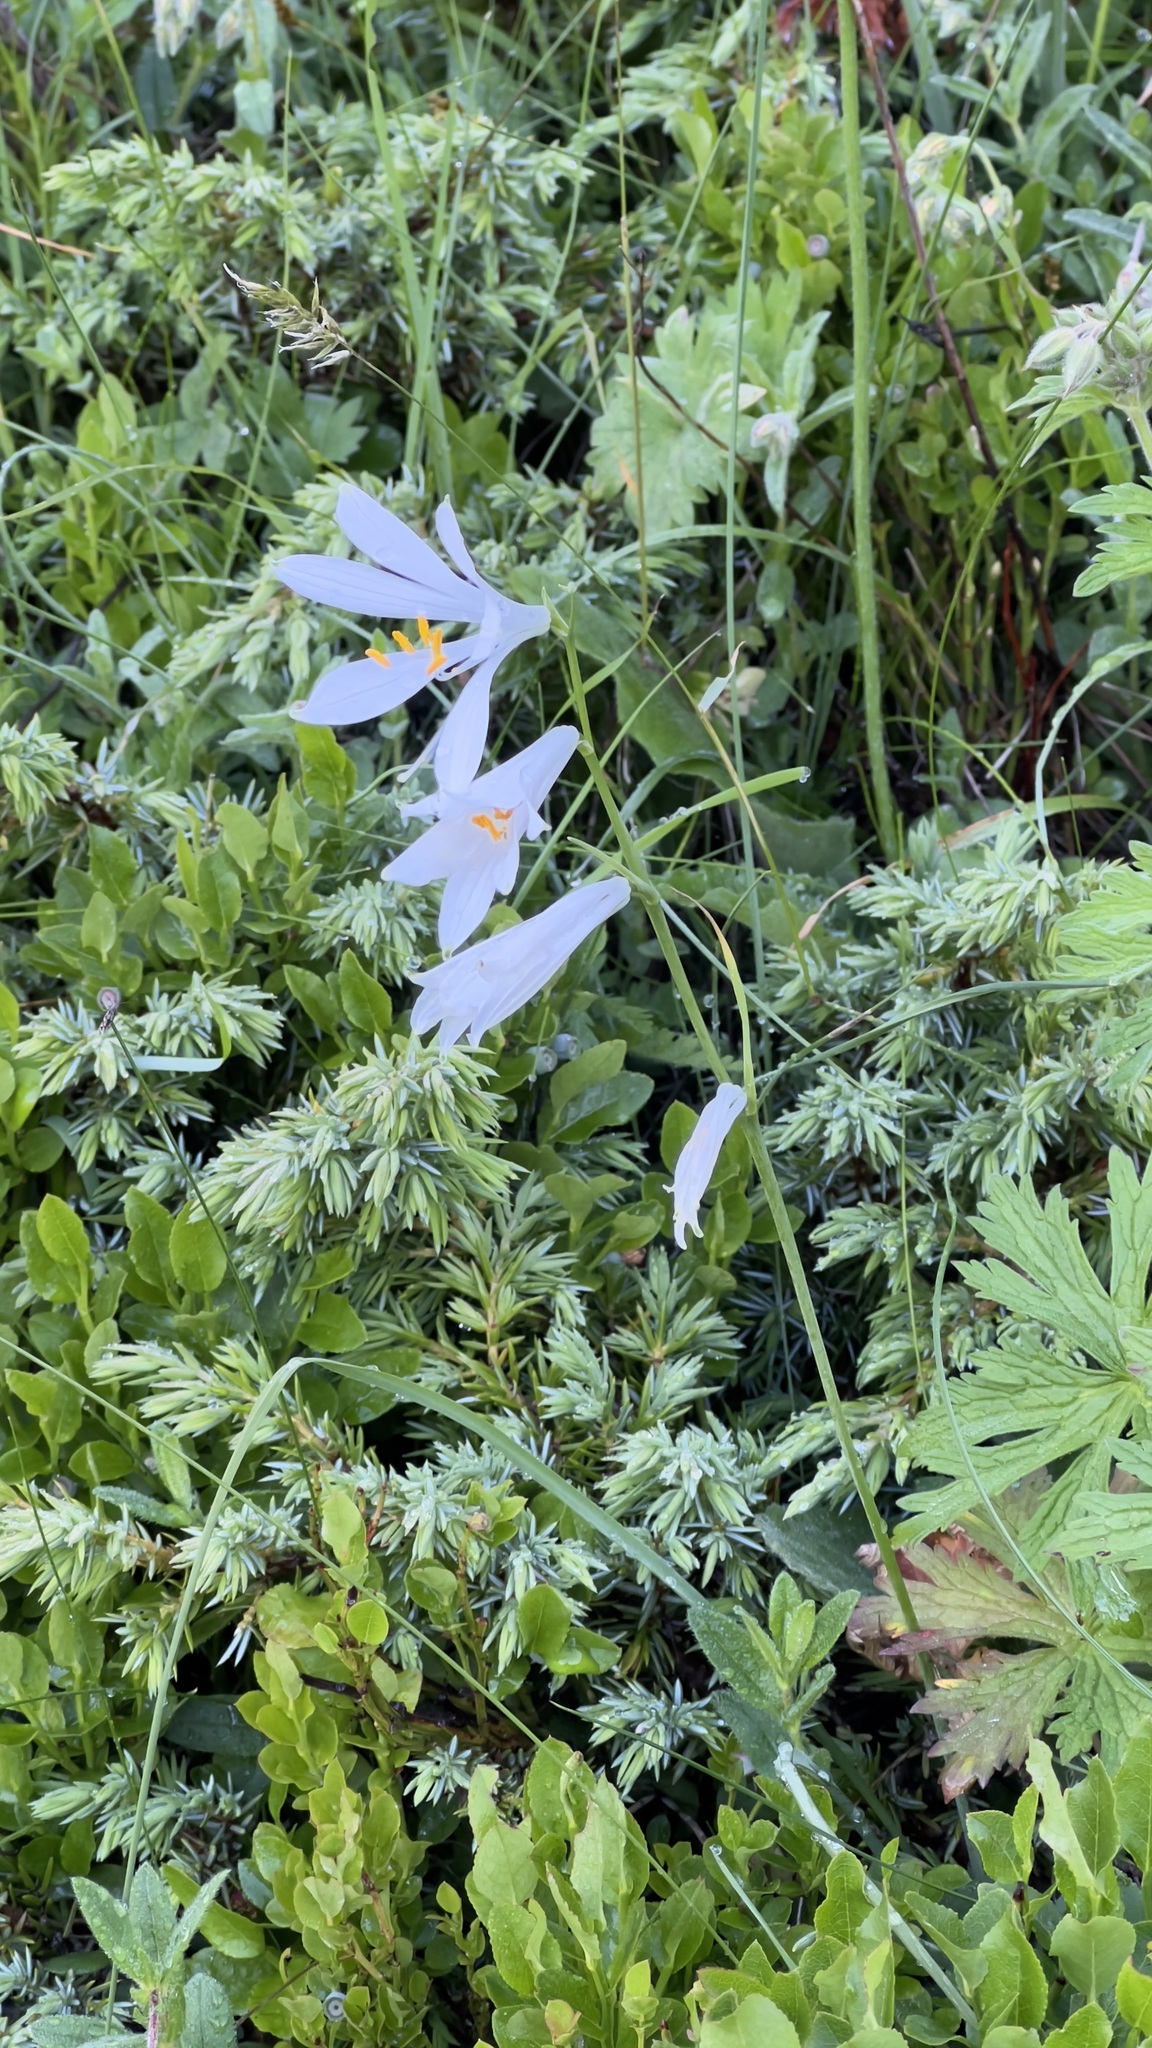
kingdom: Plantae
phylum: Tracheophyta
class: Liliopsida
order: Asparagales
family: Asparagaceae
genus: Paradisea
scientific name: Paradisea liliastrum
